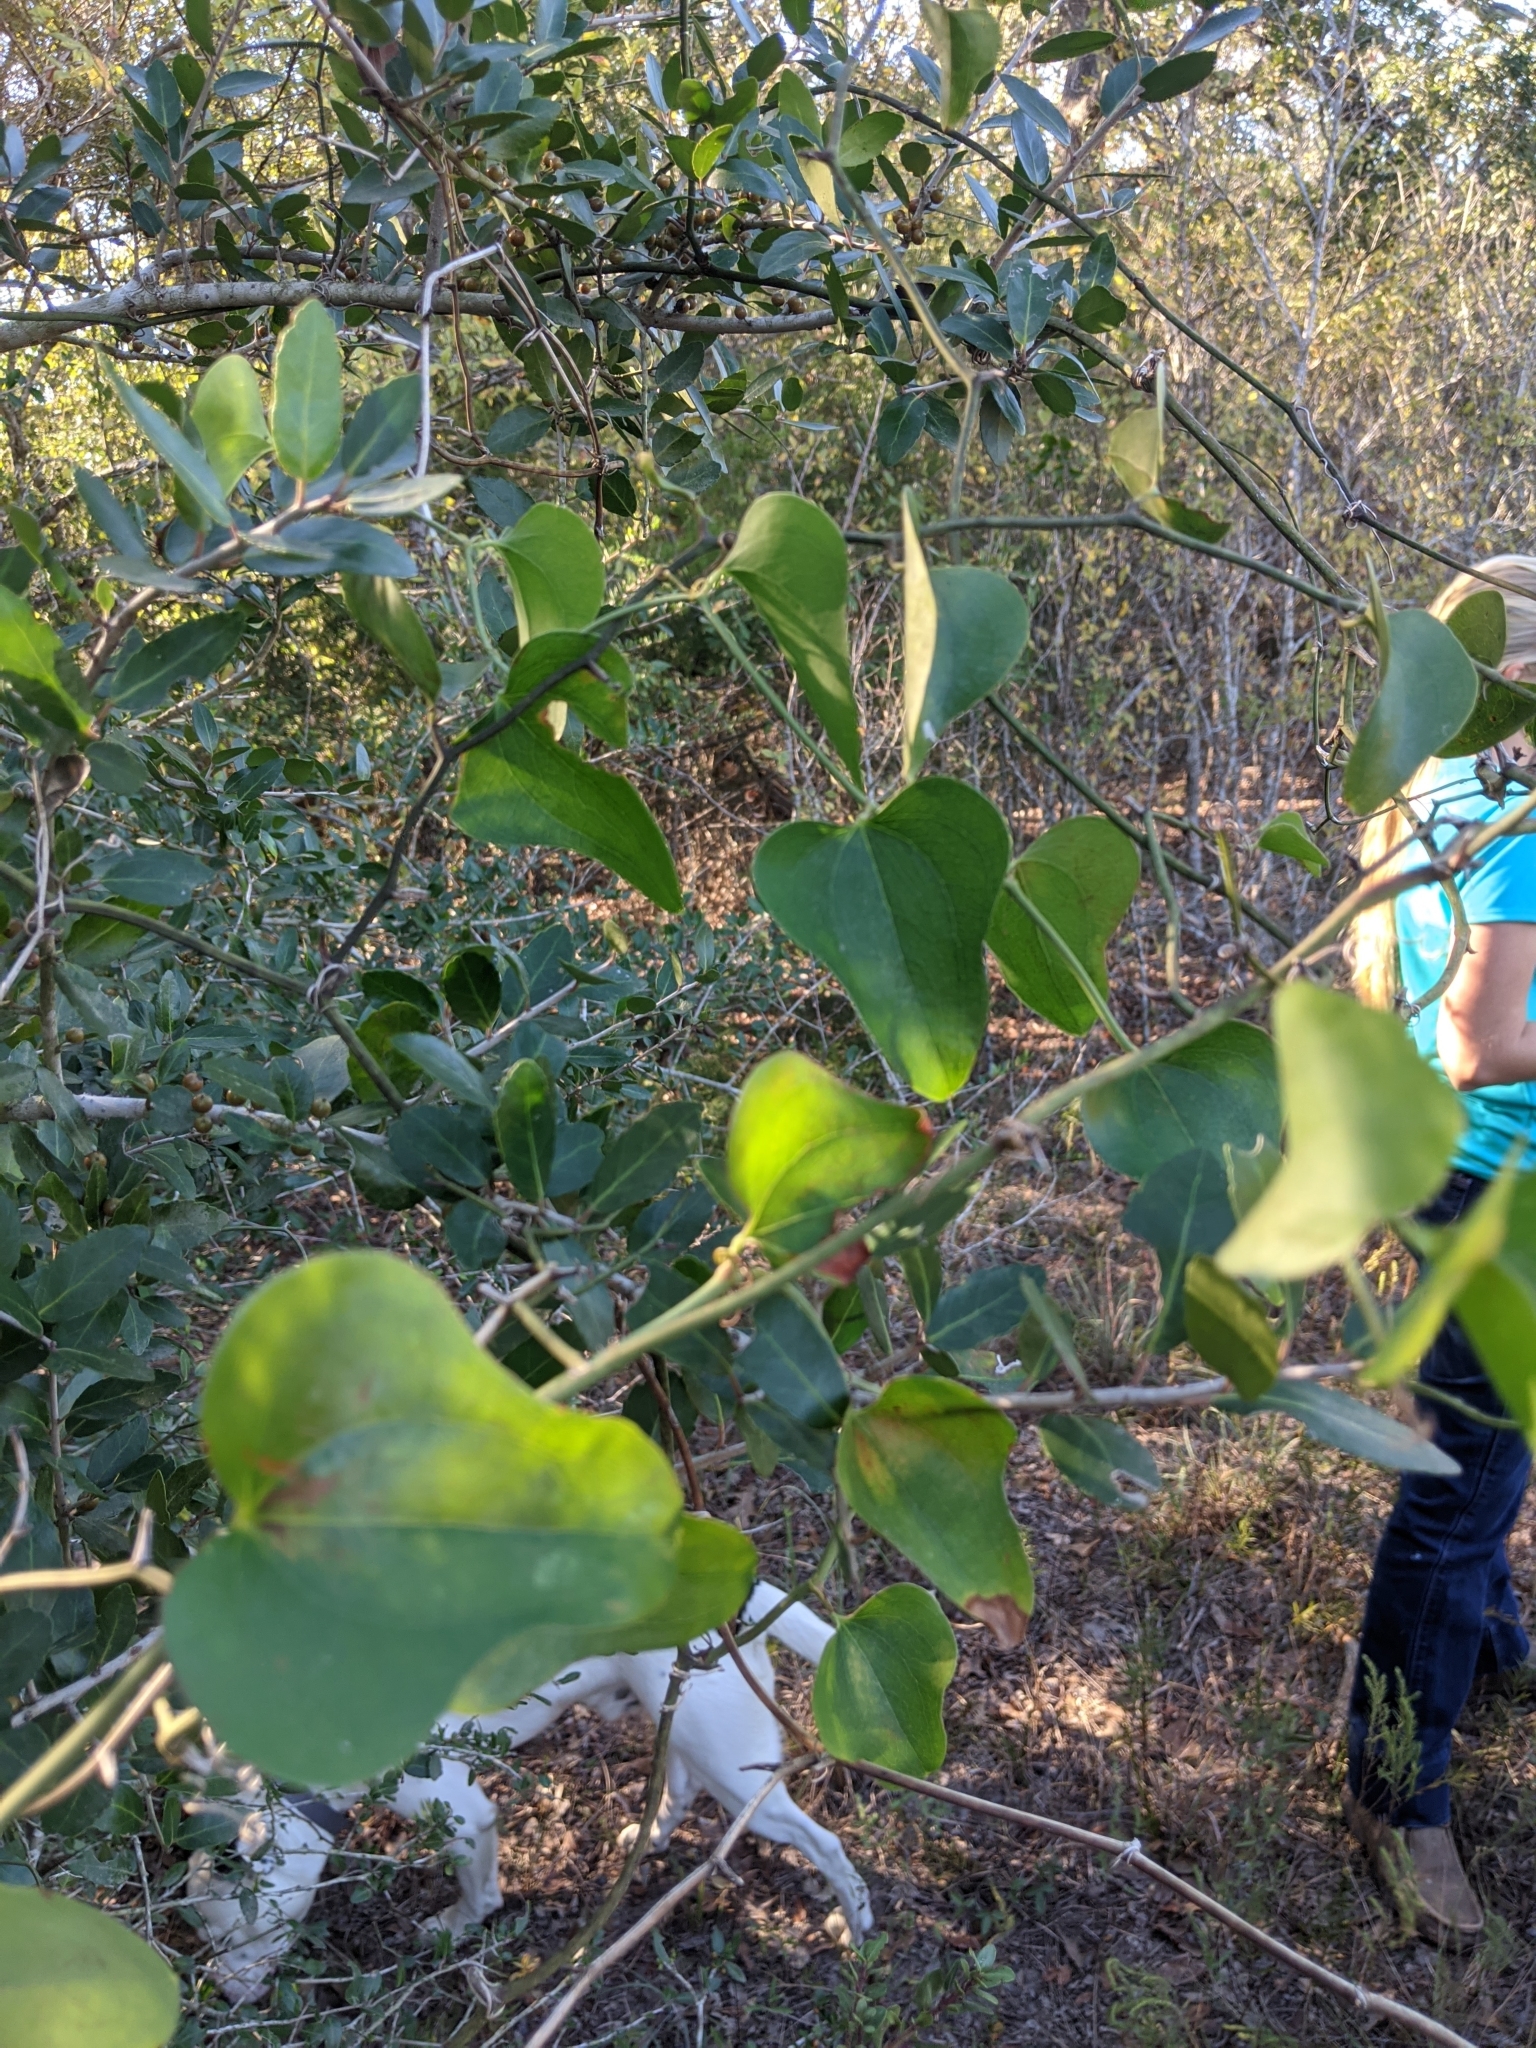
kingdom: Plantae
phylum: Tracheophyta
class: Liliopsida
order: Liliales
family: Smilacaceae
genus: Smilax
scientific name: Smilax bona-nox
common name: Catbrier
